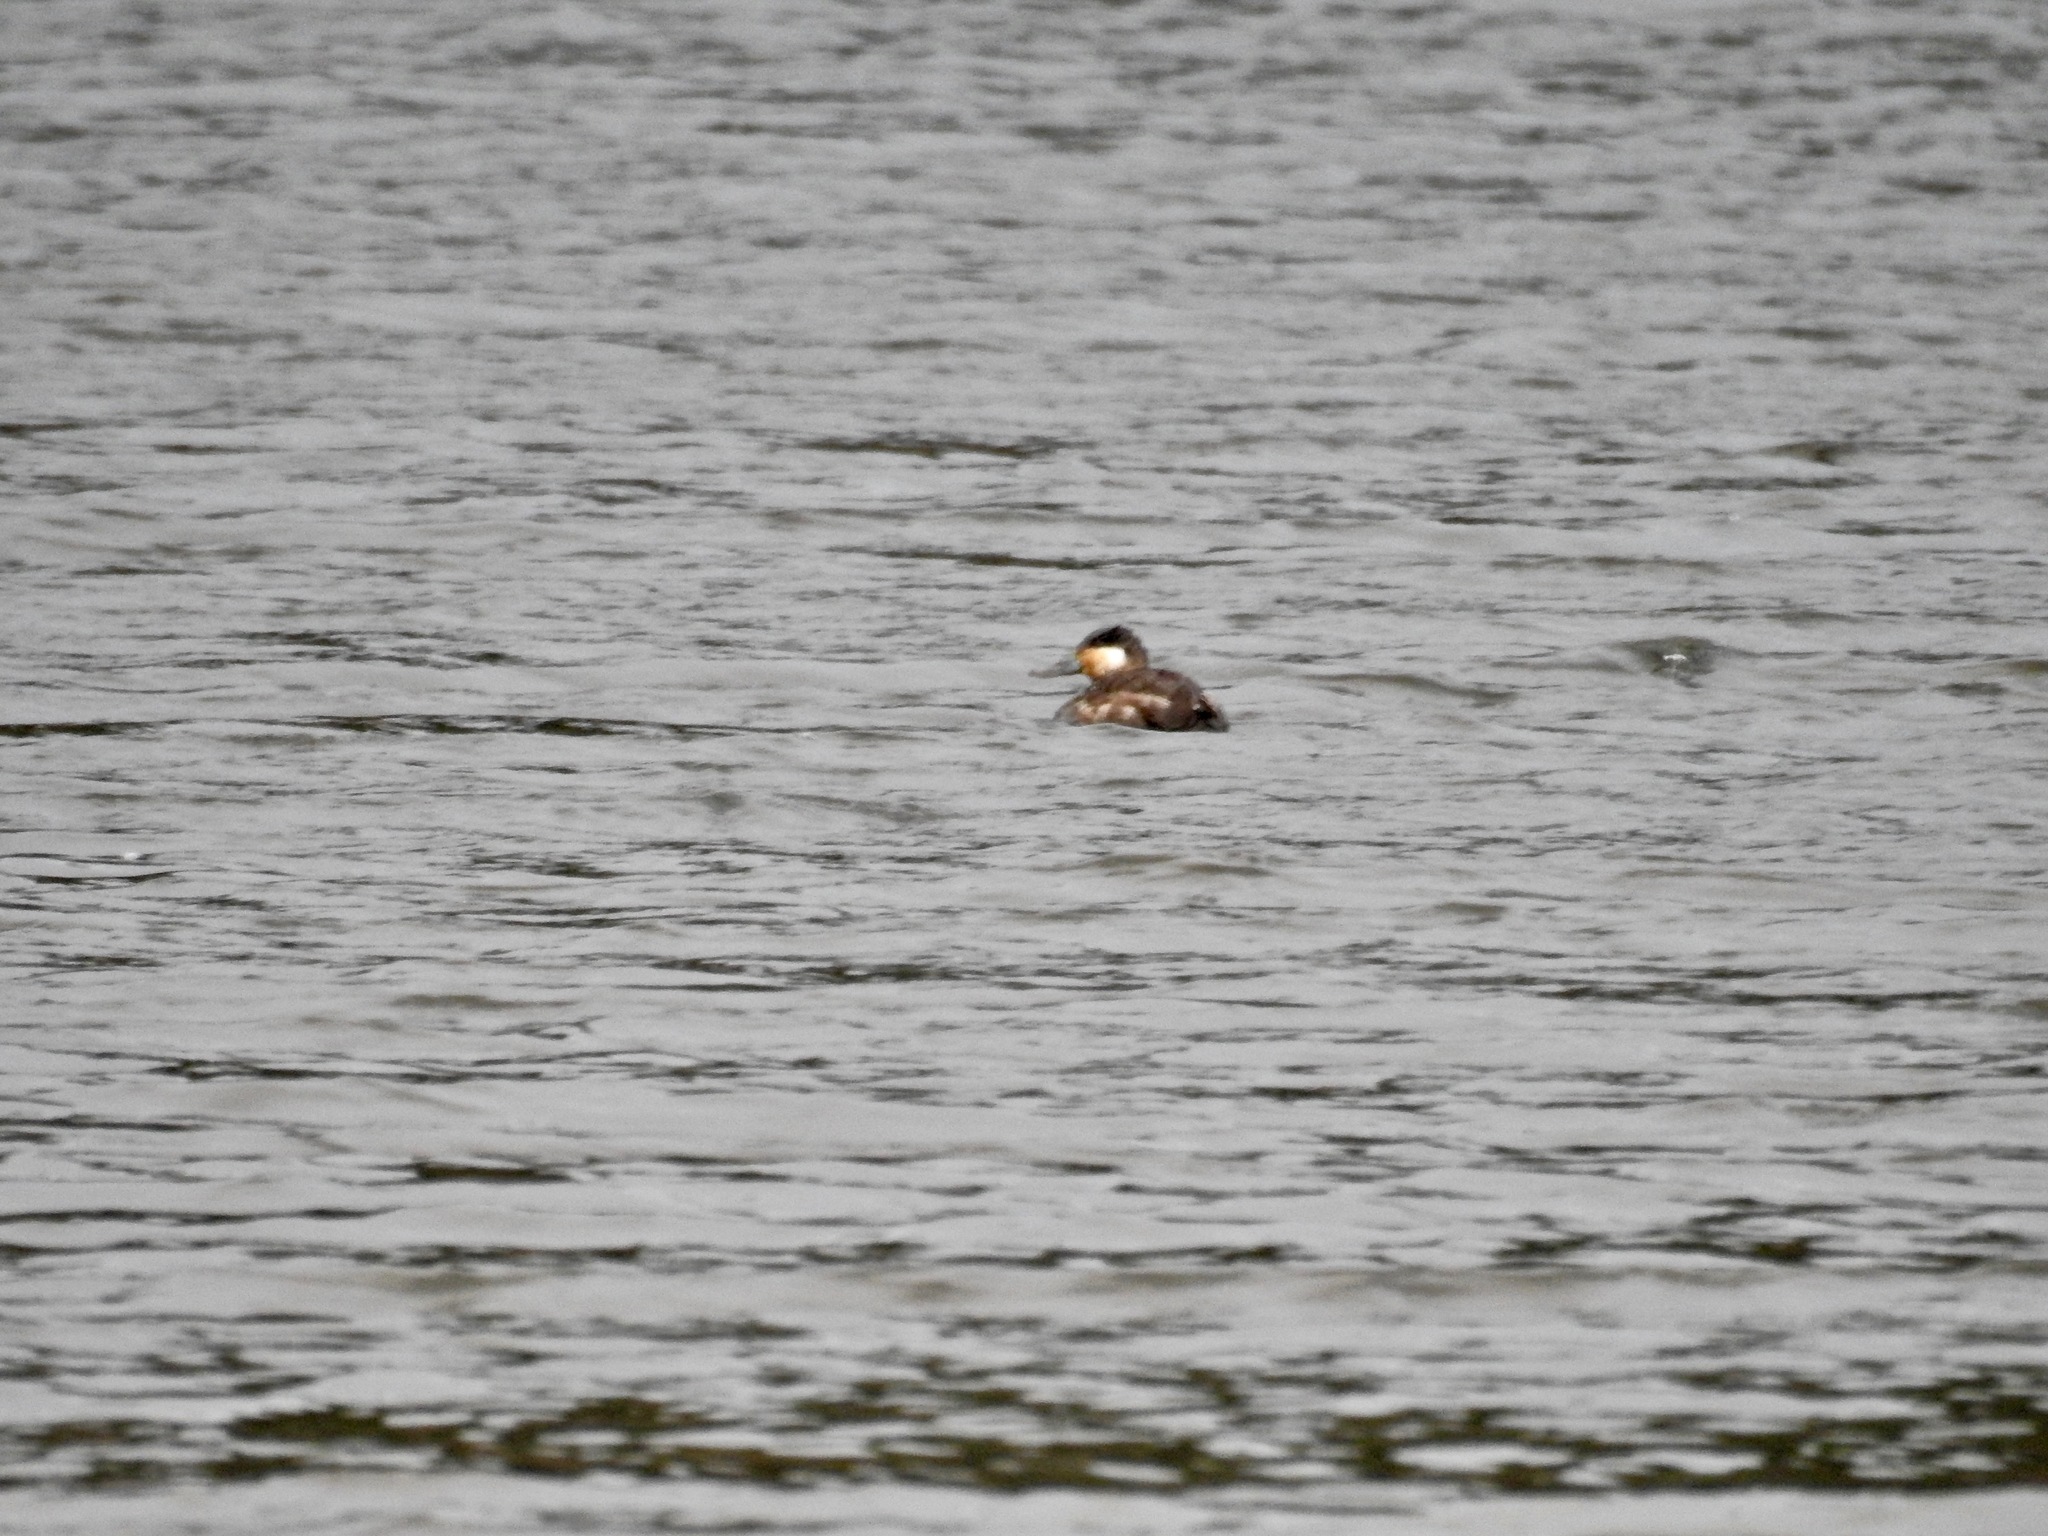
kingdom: Animalia
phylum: Chordata
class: Aves
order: Anseriformes
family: Anatidae
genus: Oxyura
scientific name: Oxyura jamaicensis
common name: Ruddy duck
